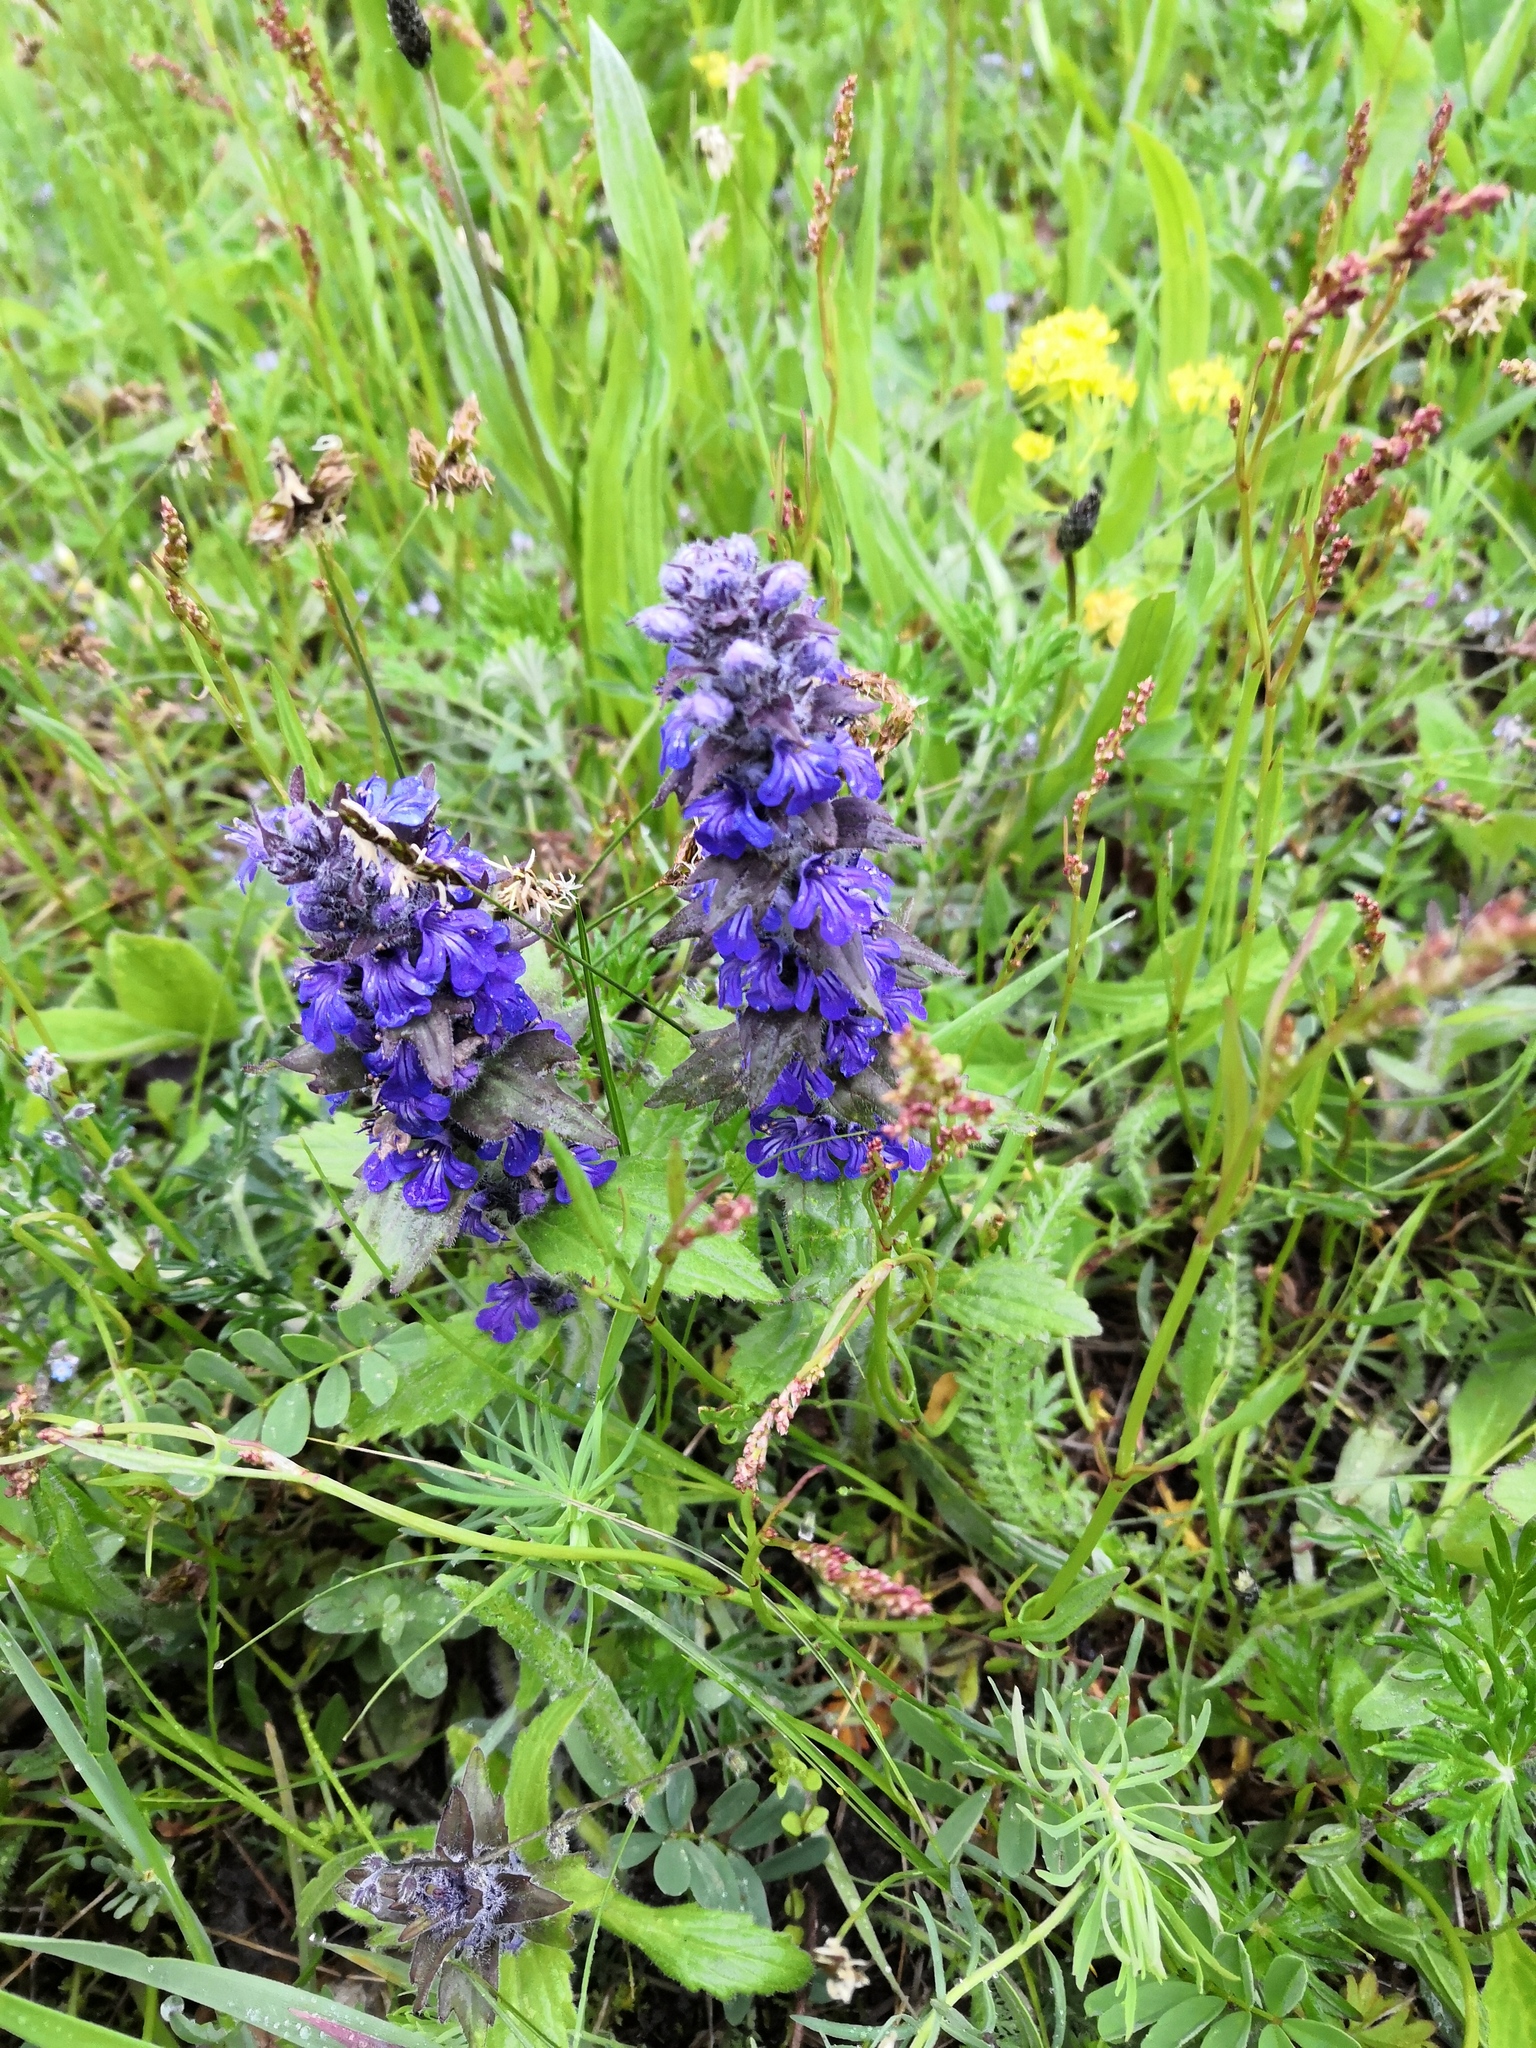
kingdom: Plantae
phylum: Tracheophyta
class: Magnoliopsida
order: Lamiales
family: Lamiaceae
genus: Ajuga
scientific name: Ajuga genevensis
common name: Blue bugle
